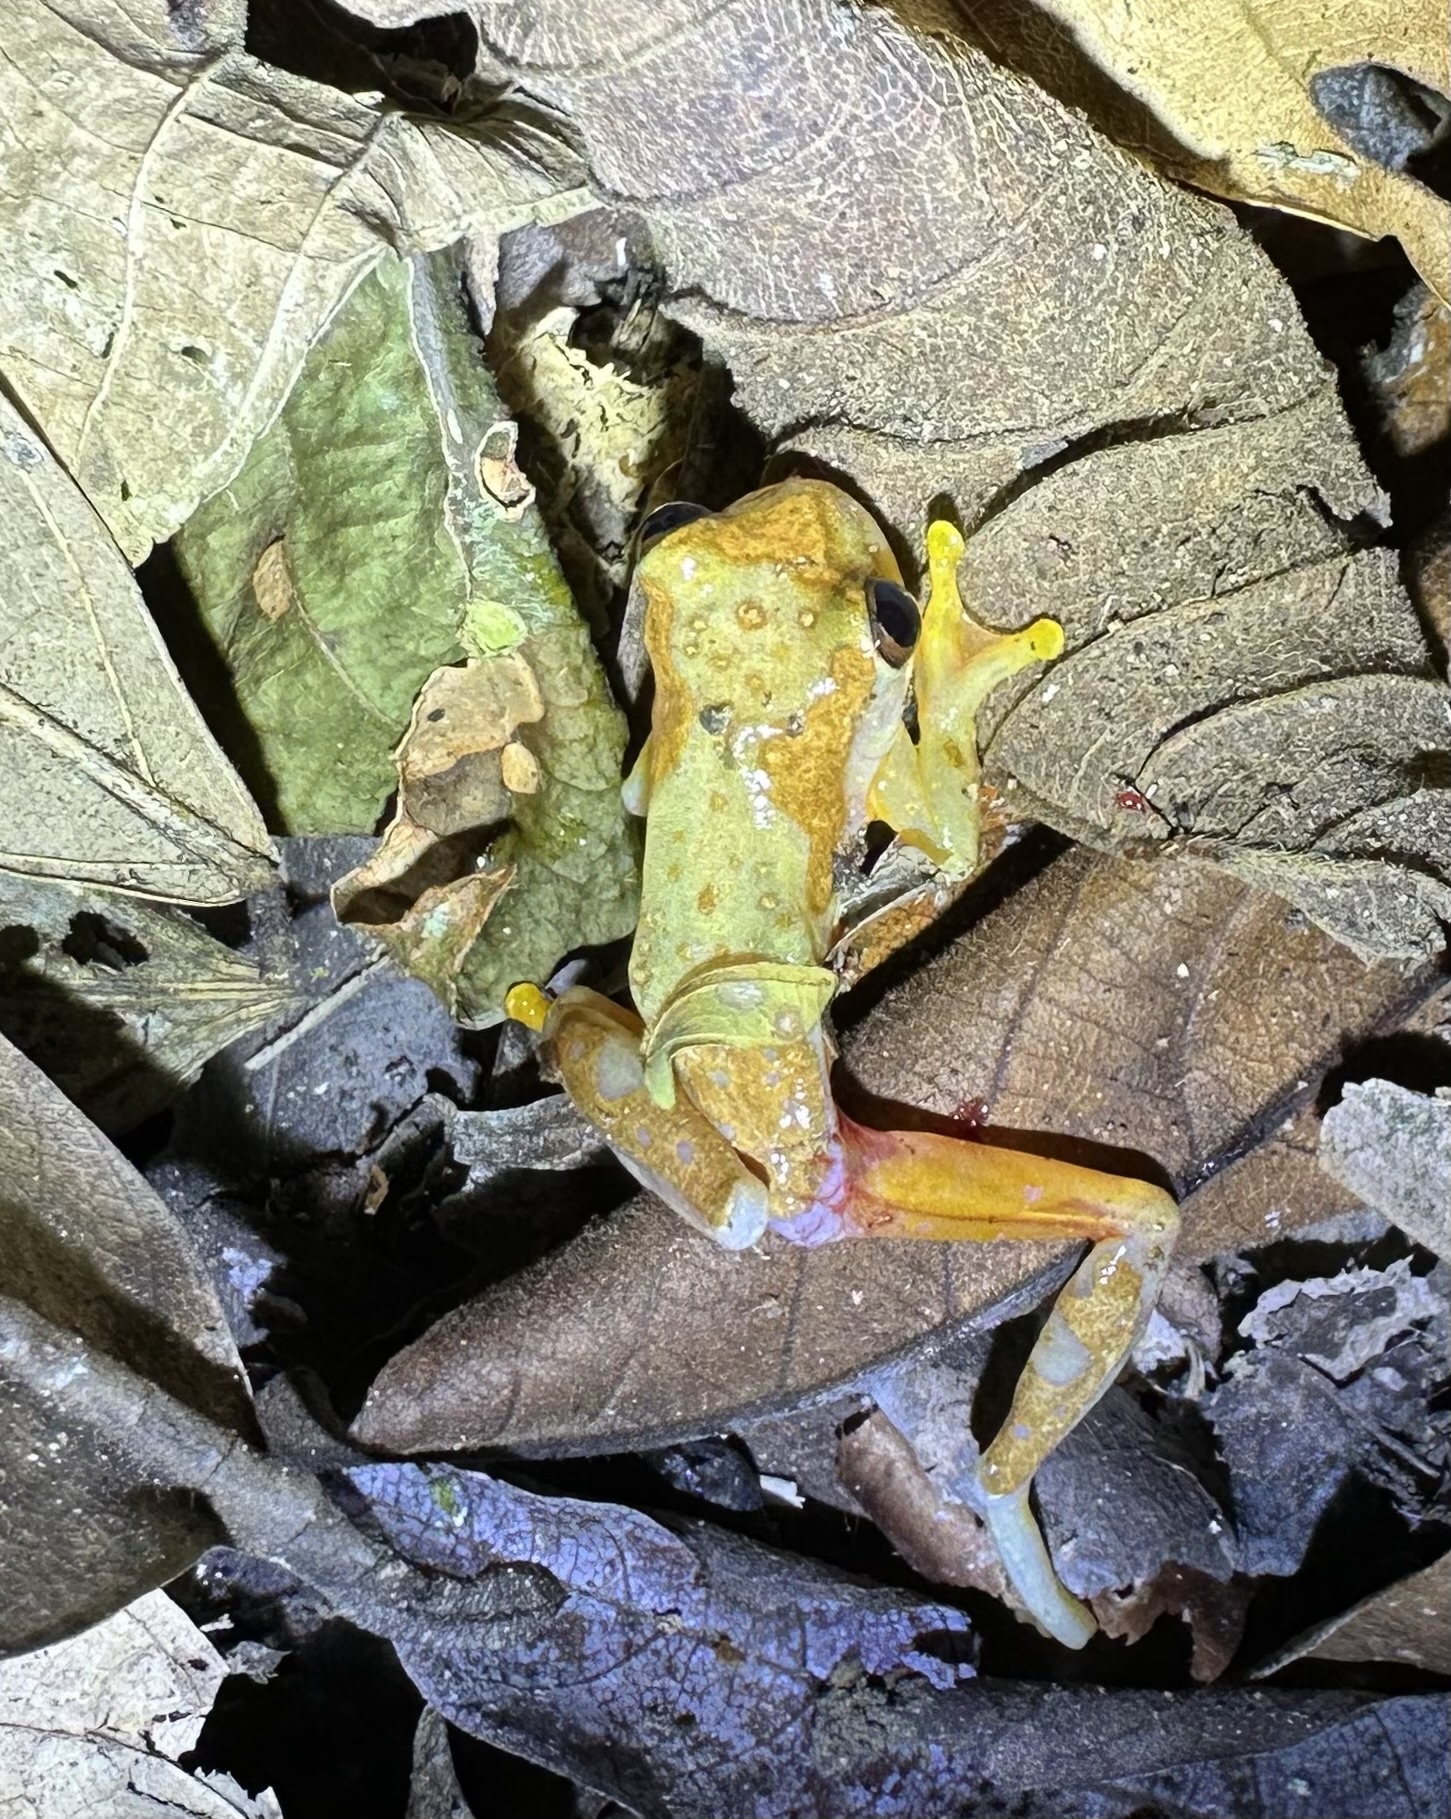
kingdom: Animalia
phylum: Chordata
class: Amphibia
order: Anura
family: Hylidae
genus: Dendropsophus
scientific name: Dendropsophus ebraccatus
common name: Hourglass treefrog
